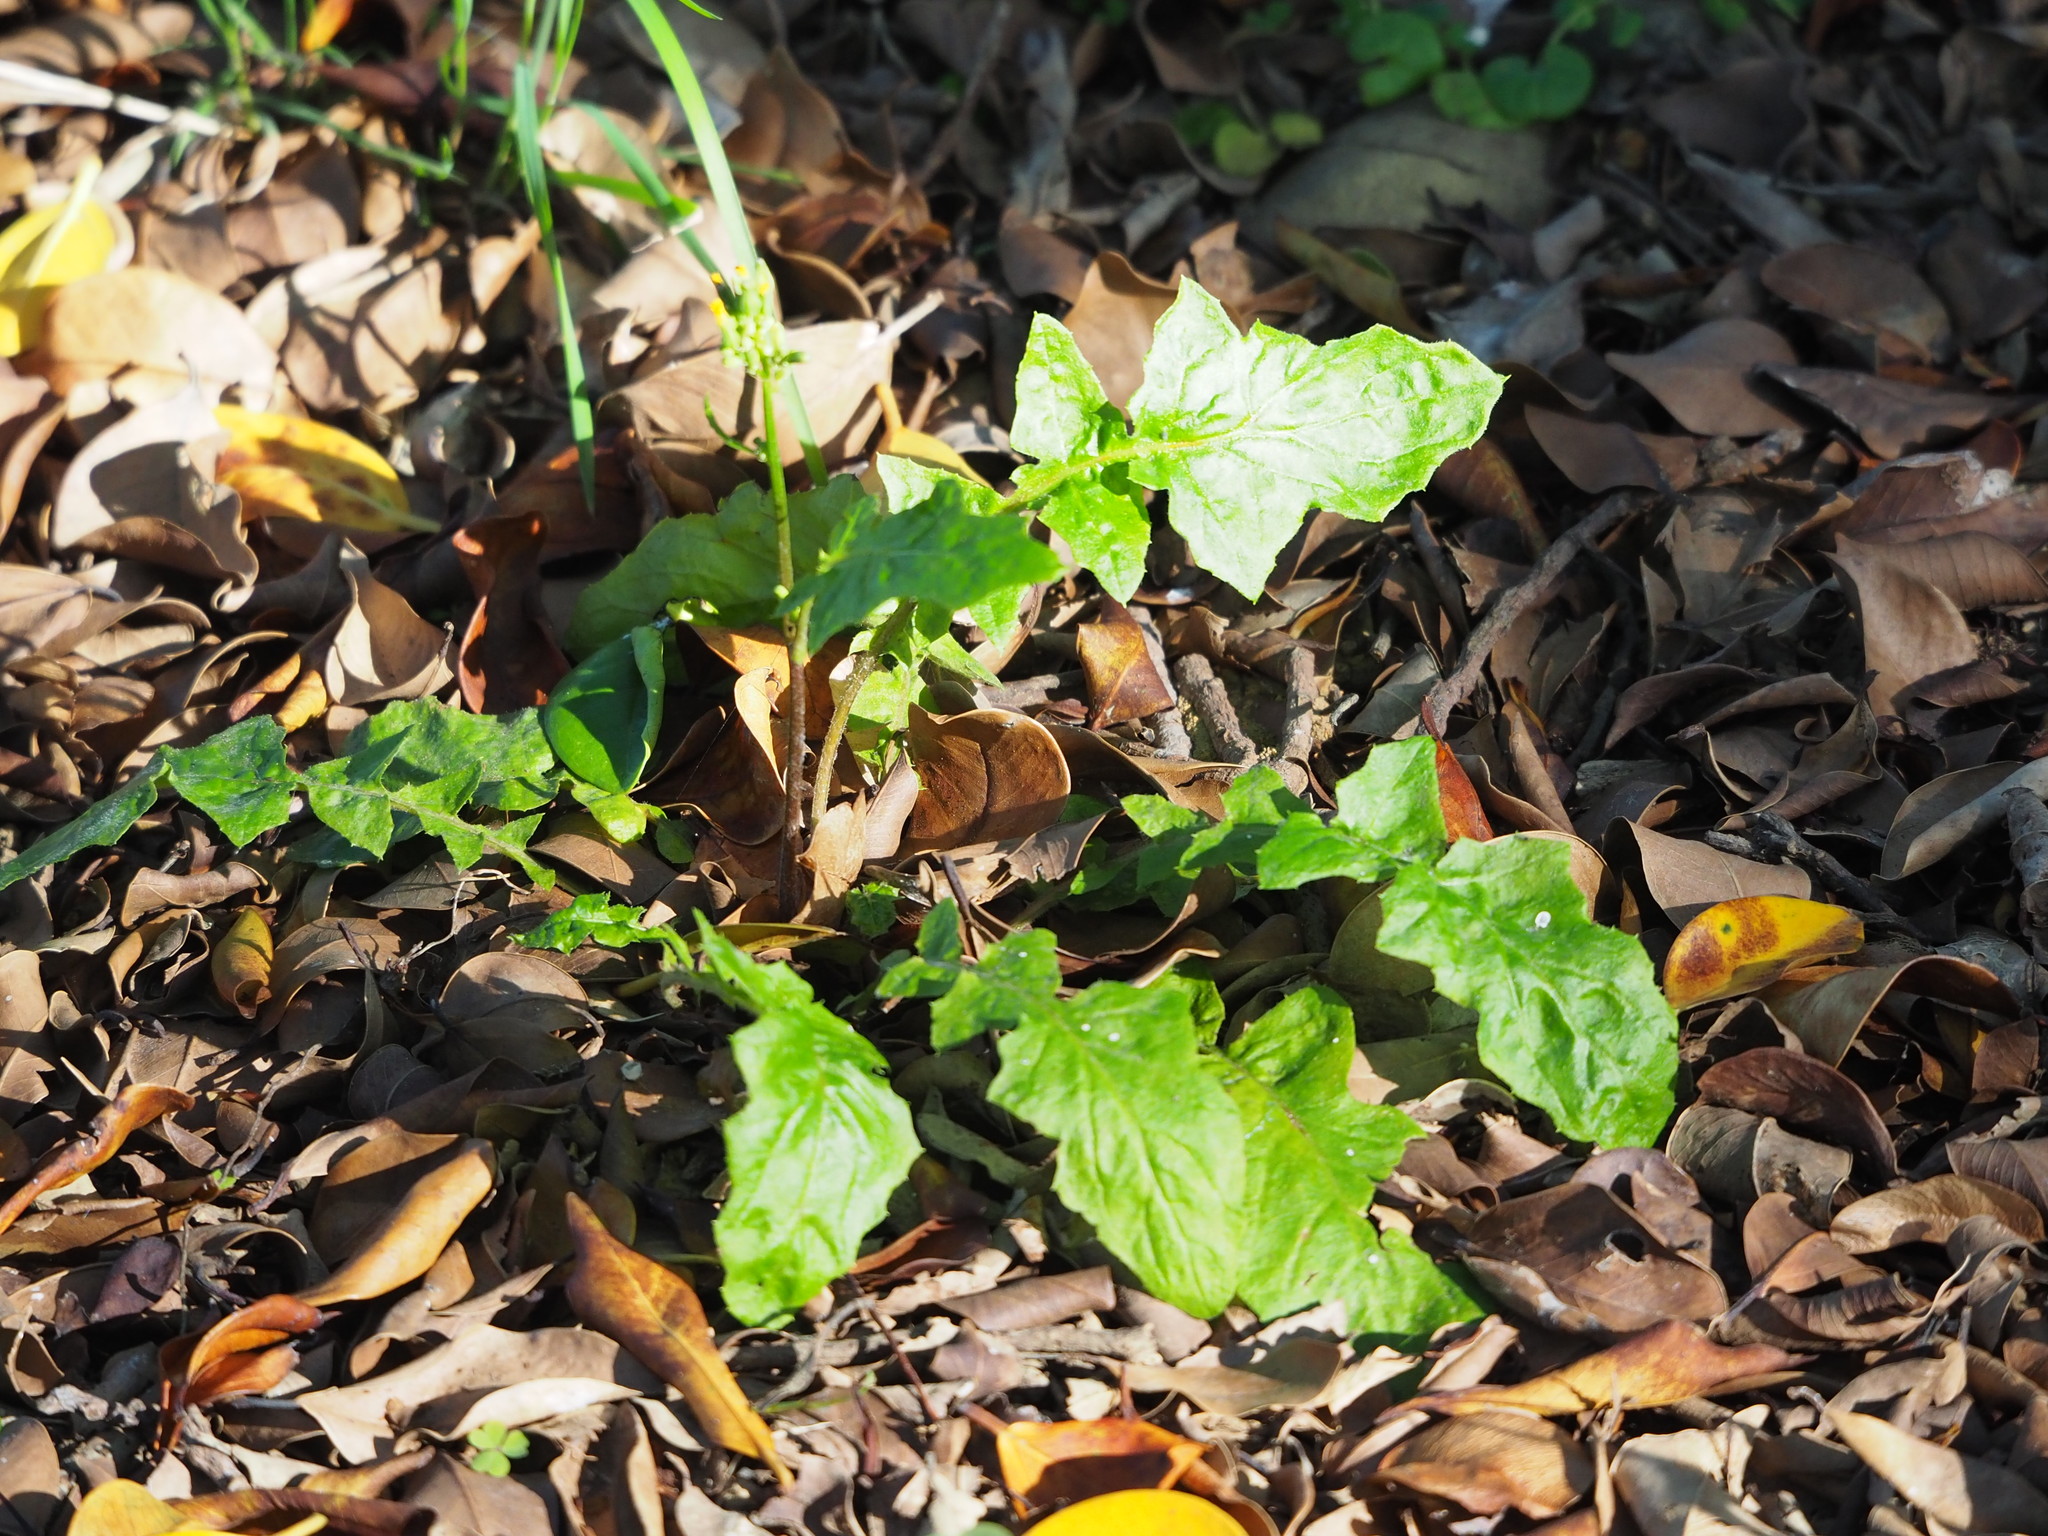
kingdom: Plantae
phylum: Tracheophyta
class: Magnoliopsida
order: Asterales
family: Asteraceae
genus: Youngia
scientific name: Youngia japonica
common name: Oriental false hawksbeard
